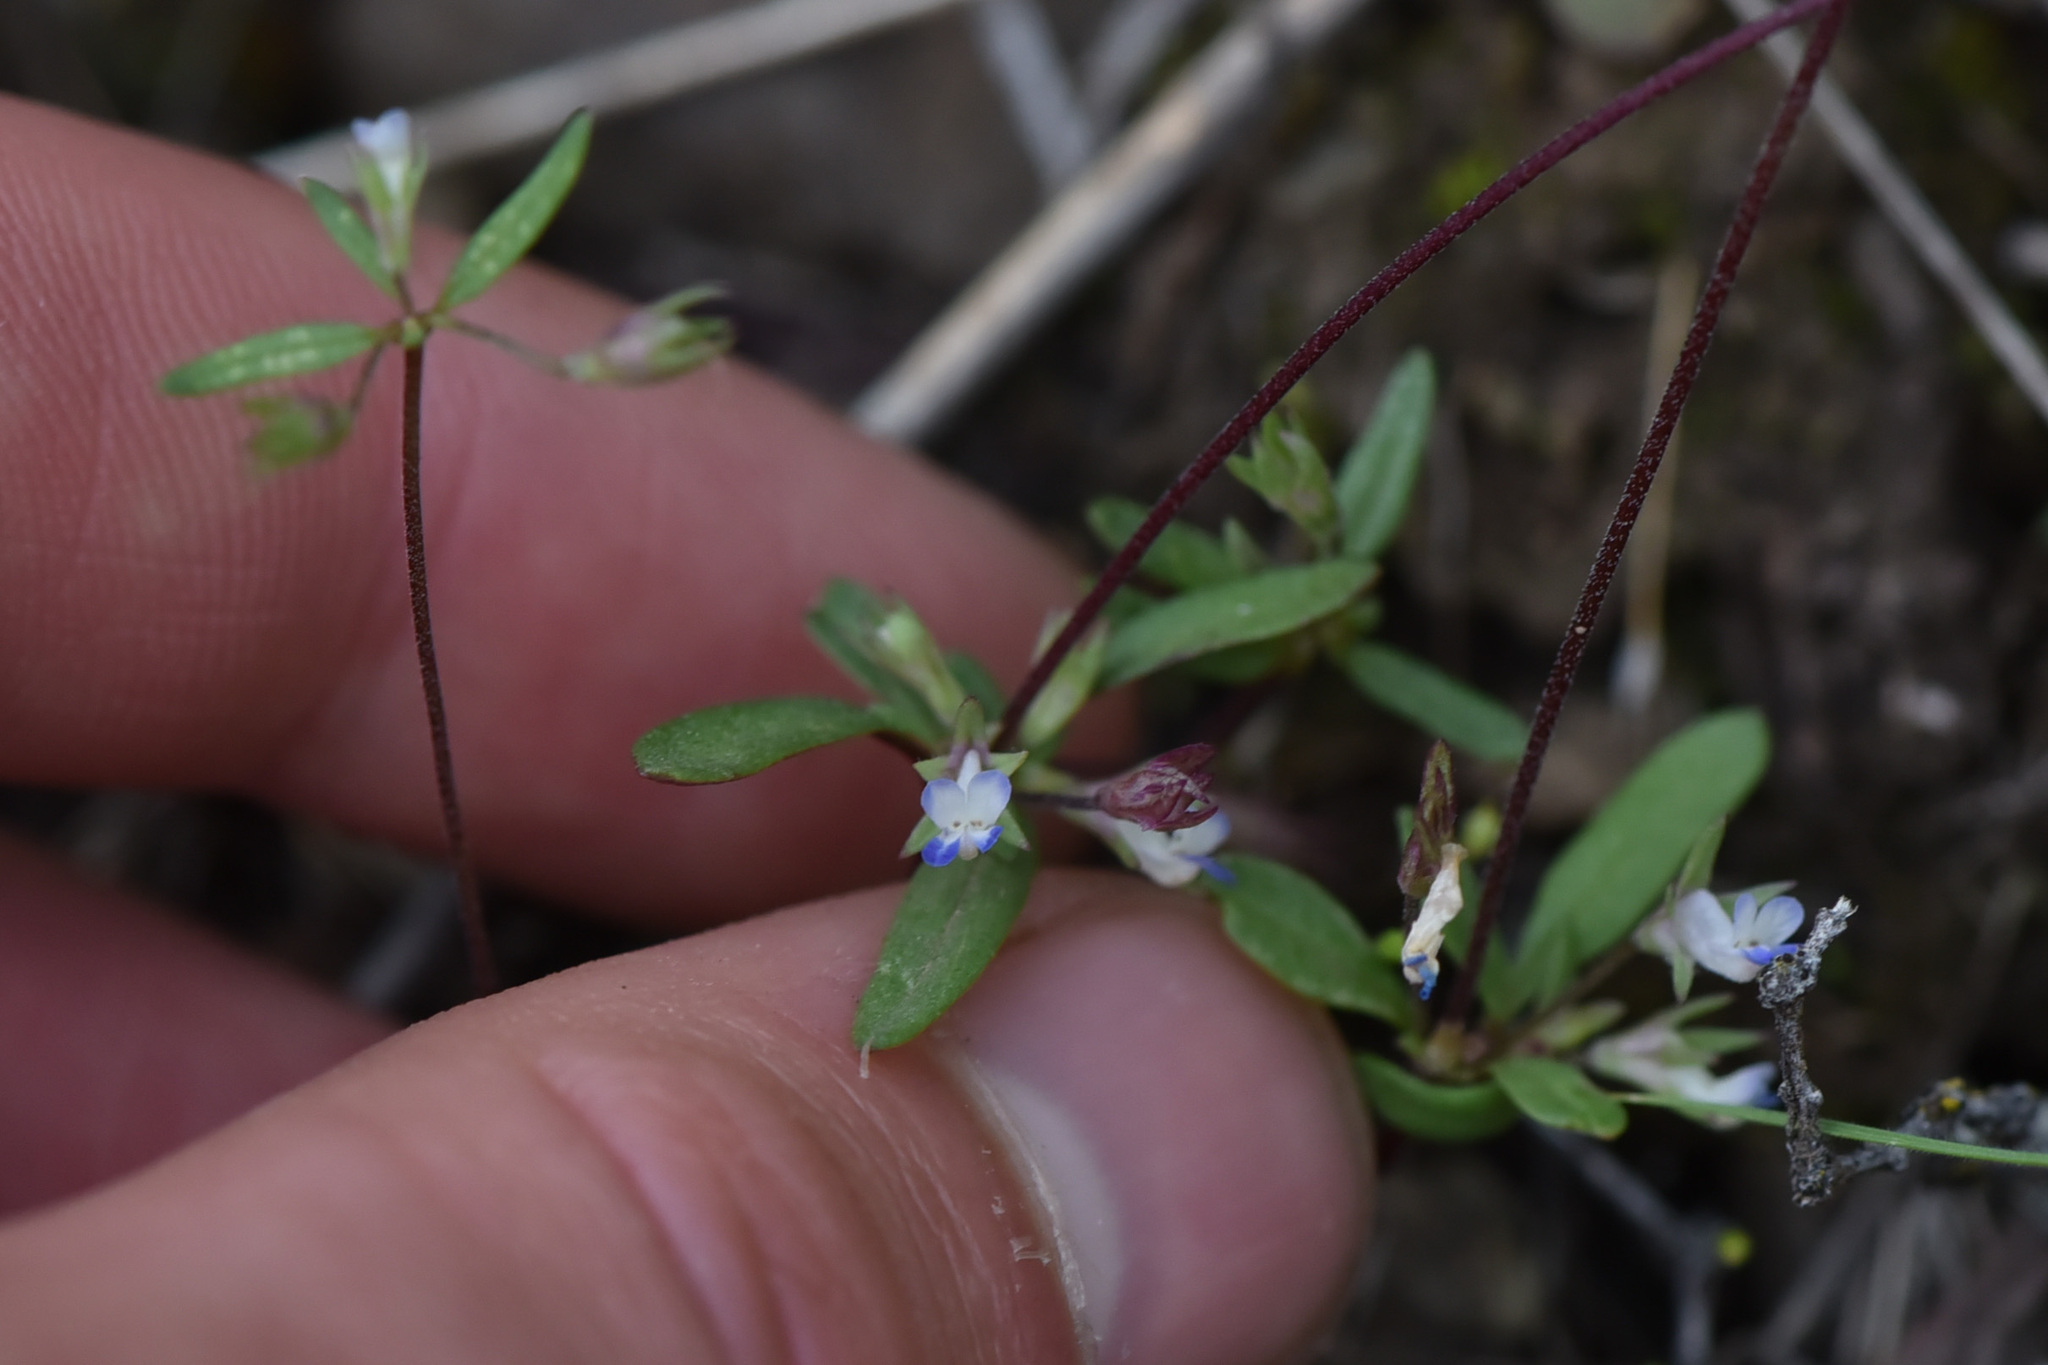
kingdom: Plantae
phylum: Tracheophyta
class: Magnoliopsida
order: Lamiales
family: Plantaginaceae
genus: Collinsia
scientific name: Collinsia parviflora
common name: Blue-lips
